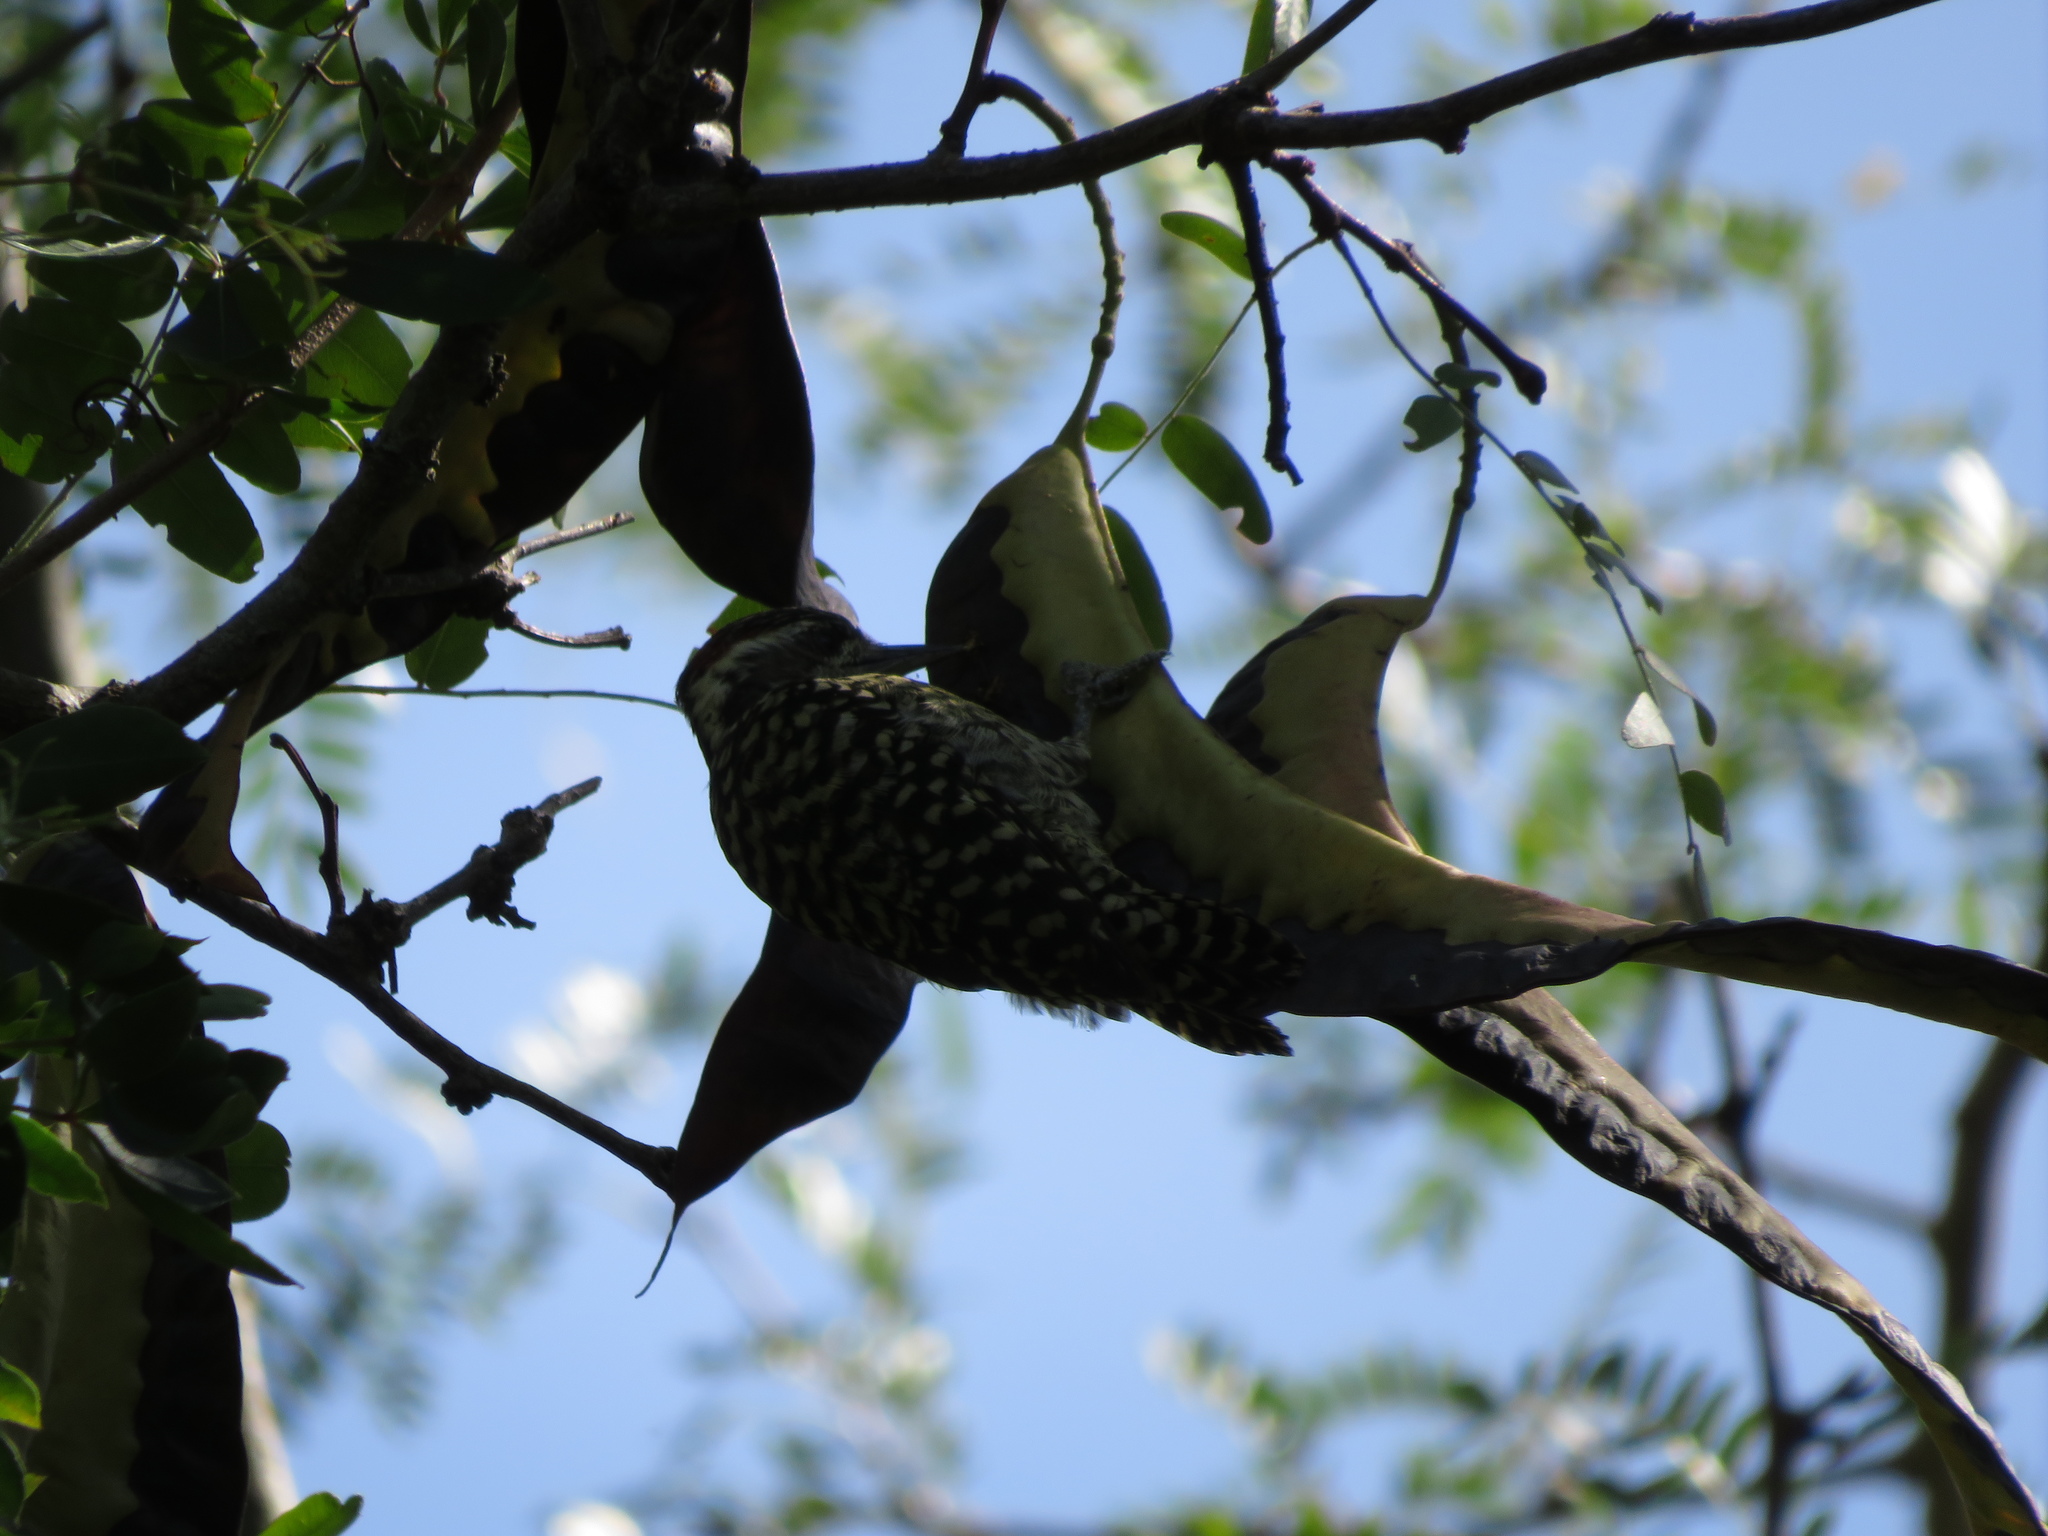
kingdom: Animalia
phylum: Chordata
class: Aves
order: Piciformes
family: Picidae
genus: Veniliornis
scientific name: Veniliornis mixtus
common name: Checkered woodpecker
